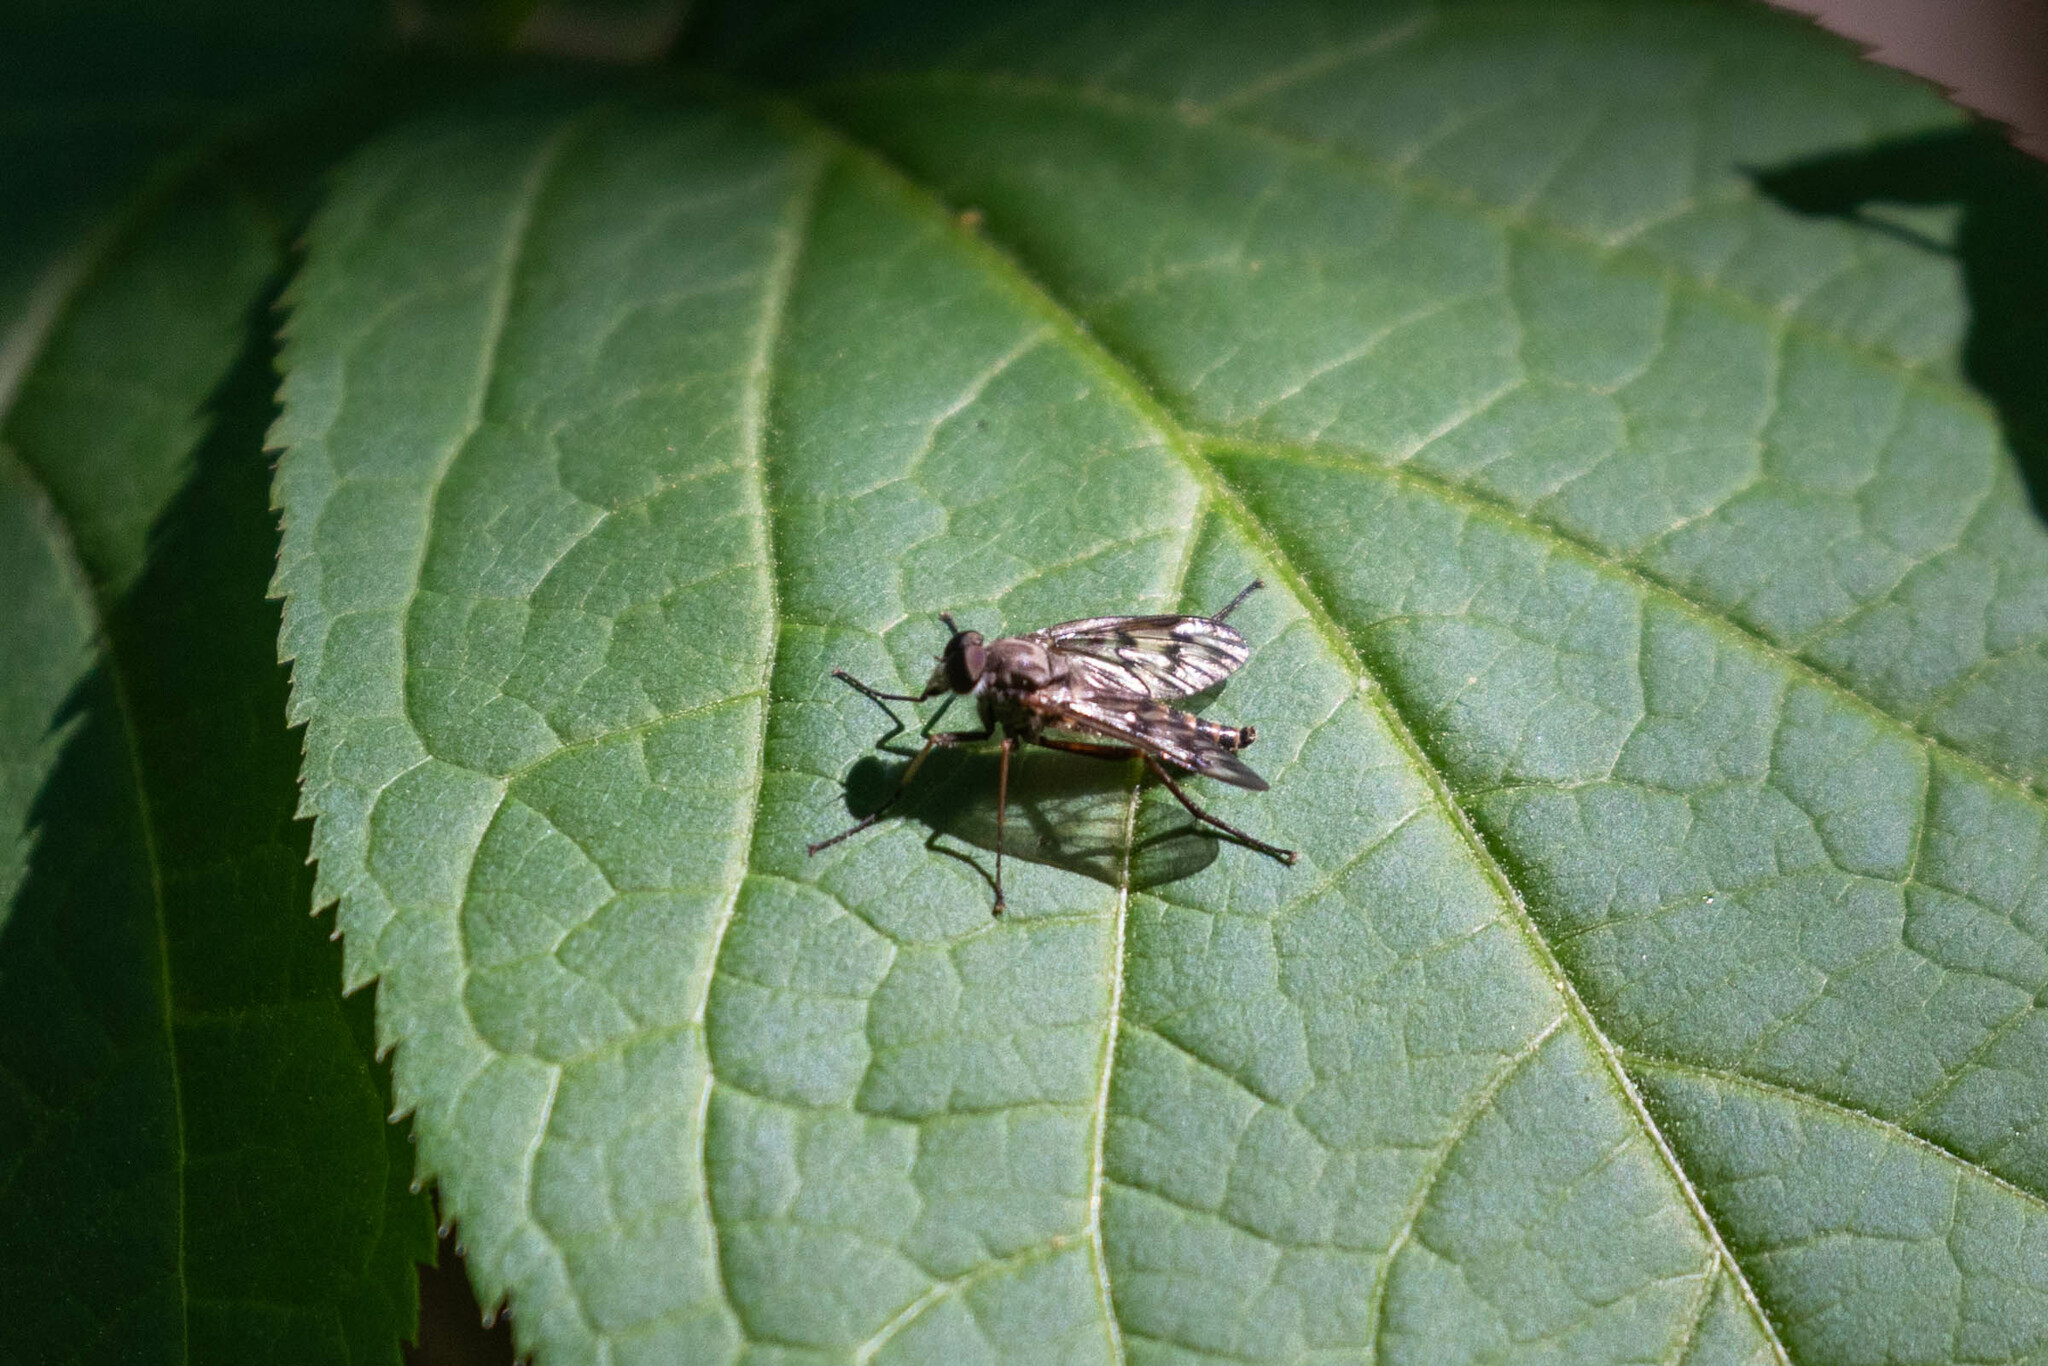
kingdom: Animalia
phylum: Arthropoda
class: Insecta
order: Diptera
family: Rhagionidae
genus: Rhagio
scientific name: Rhagio scolopacea
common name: Downlooker snipefly
